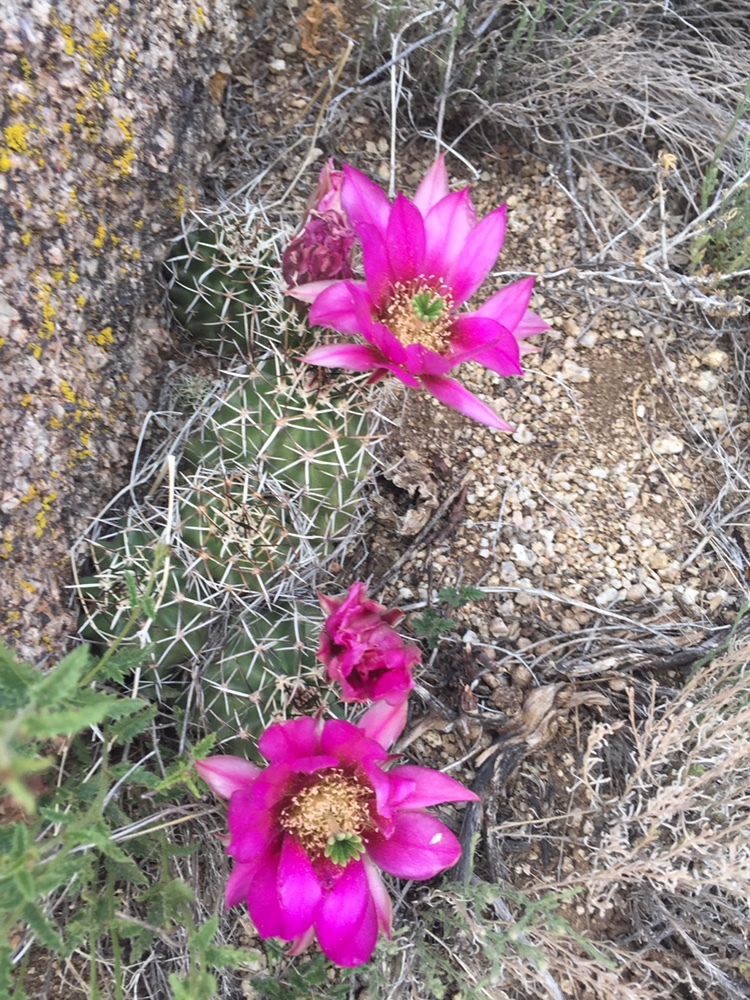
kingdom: Plantae
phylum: Tracheophyta
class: Magnoliopsida
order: Caryophyllales
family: Cactaceae
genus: Echinocereus
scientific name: Echinocereus fendleri
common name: Fendler's hedgehog cactus
